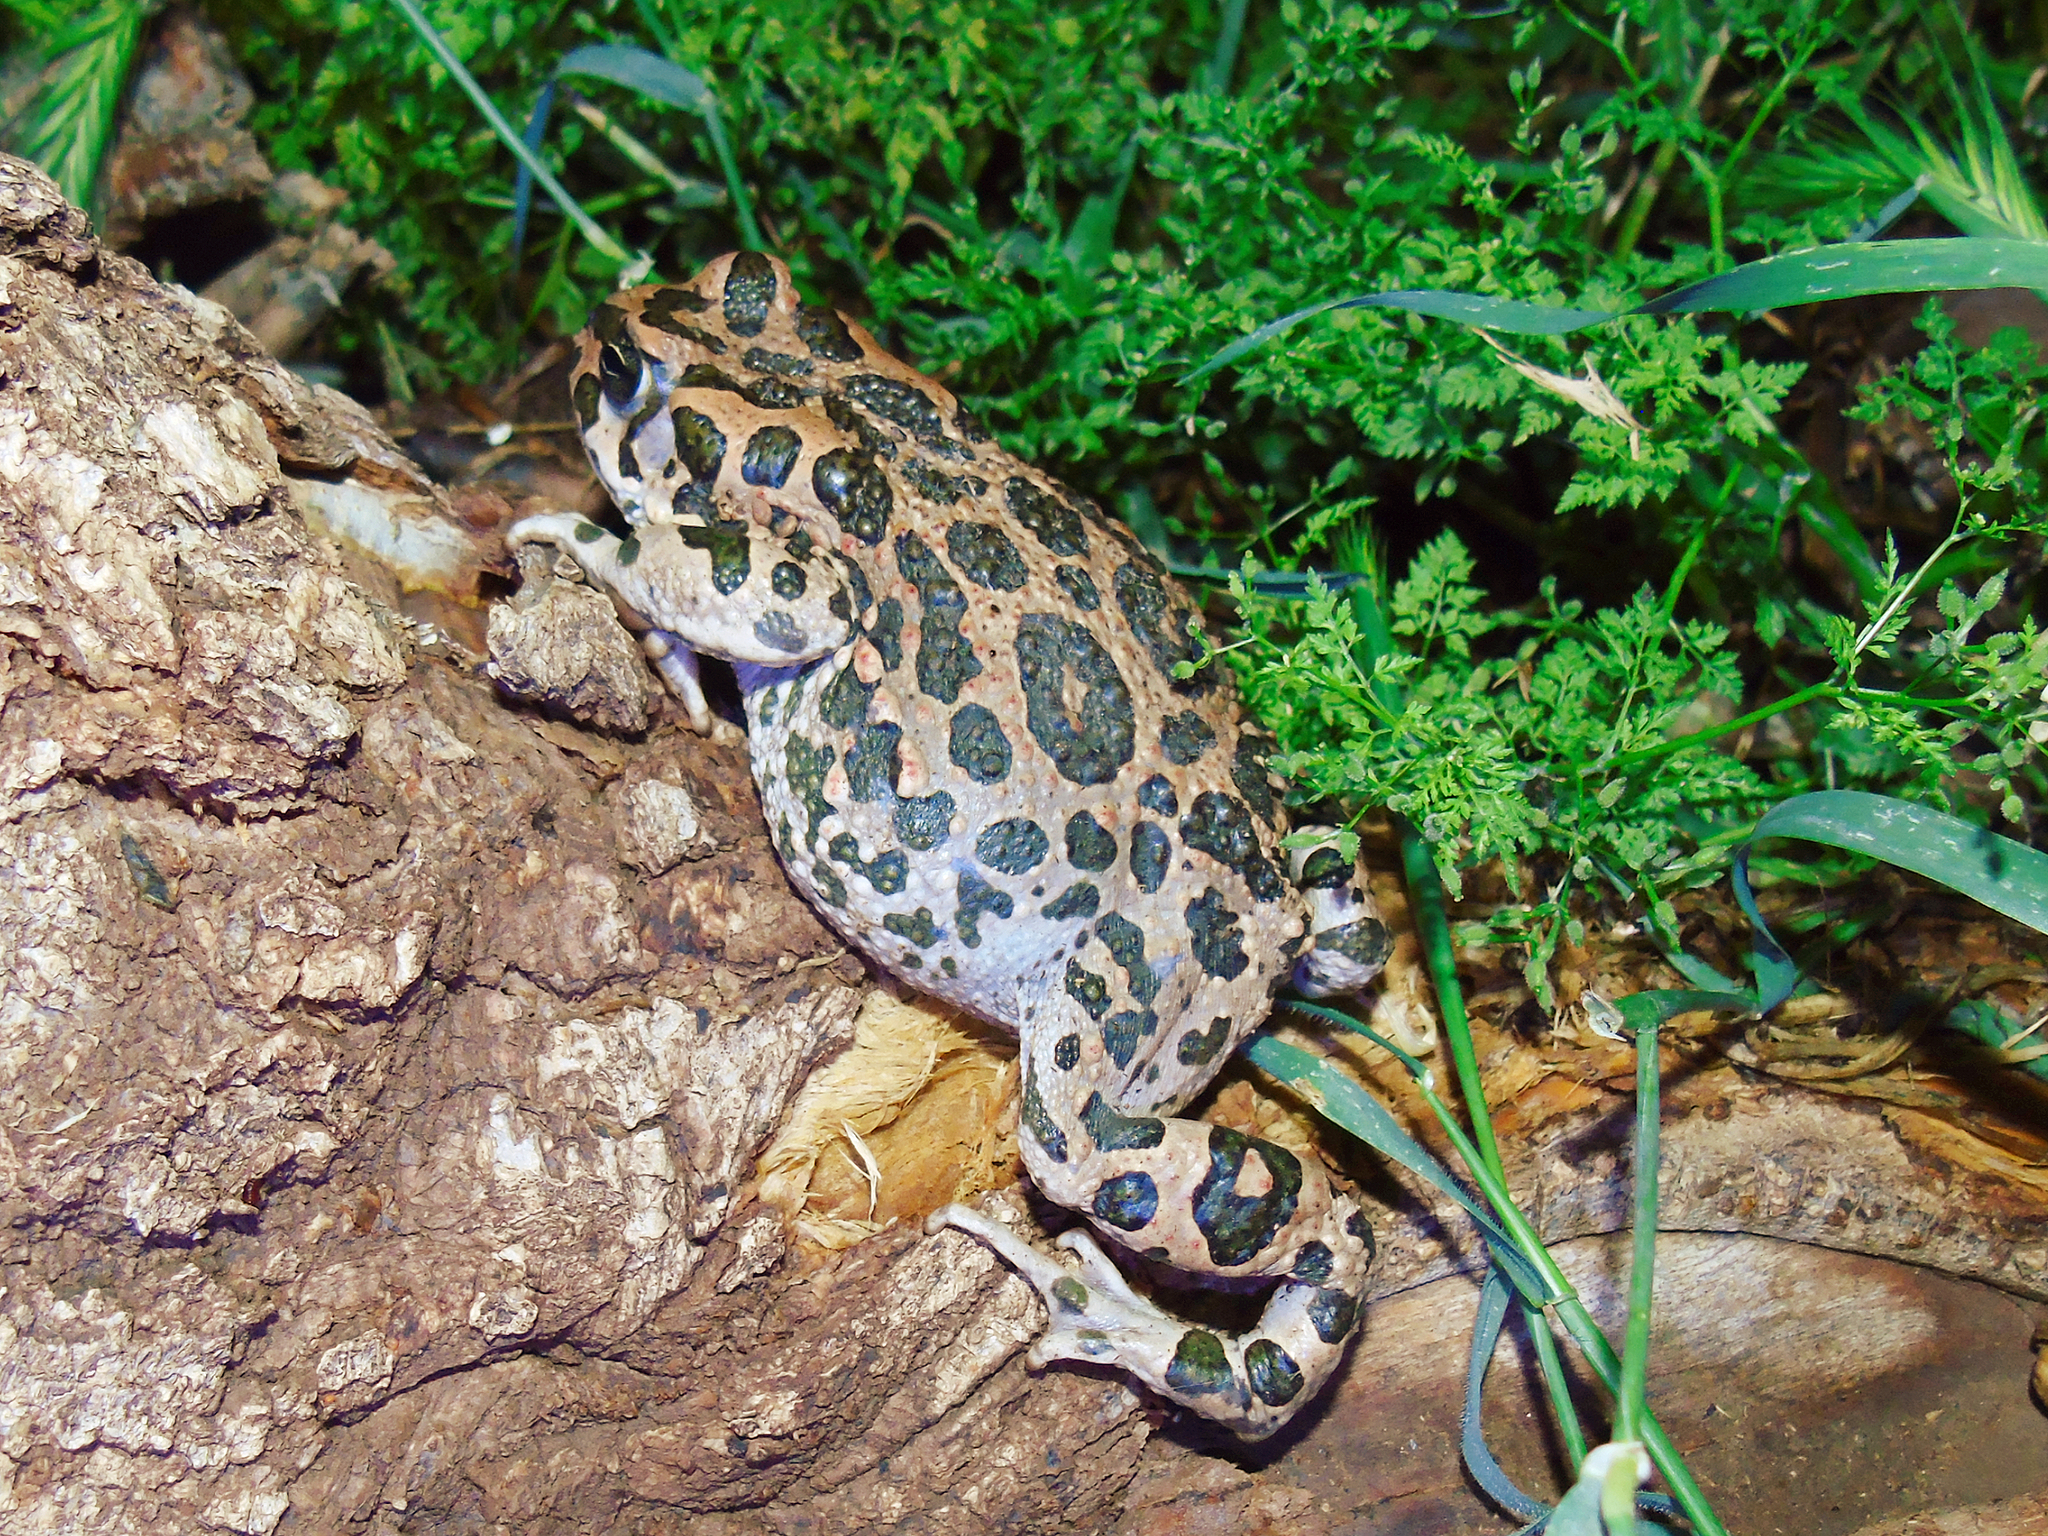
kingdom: Animalia
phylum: Chordata
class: Amphibia
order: Anura
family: Bufonidae
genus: Bufotes
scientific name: Bufotes viridis
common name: European green toad
